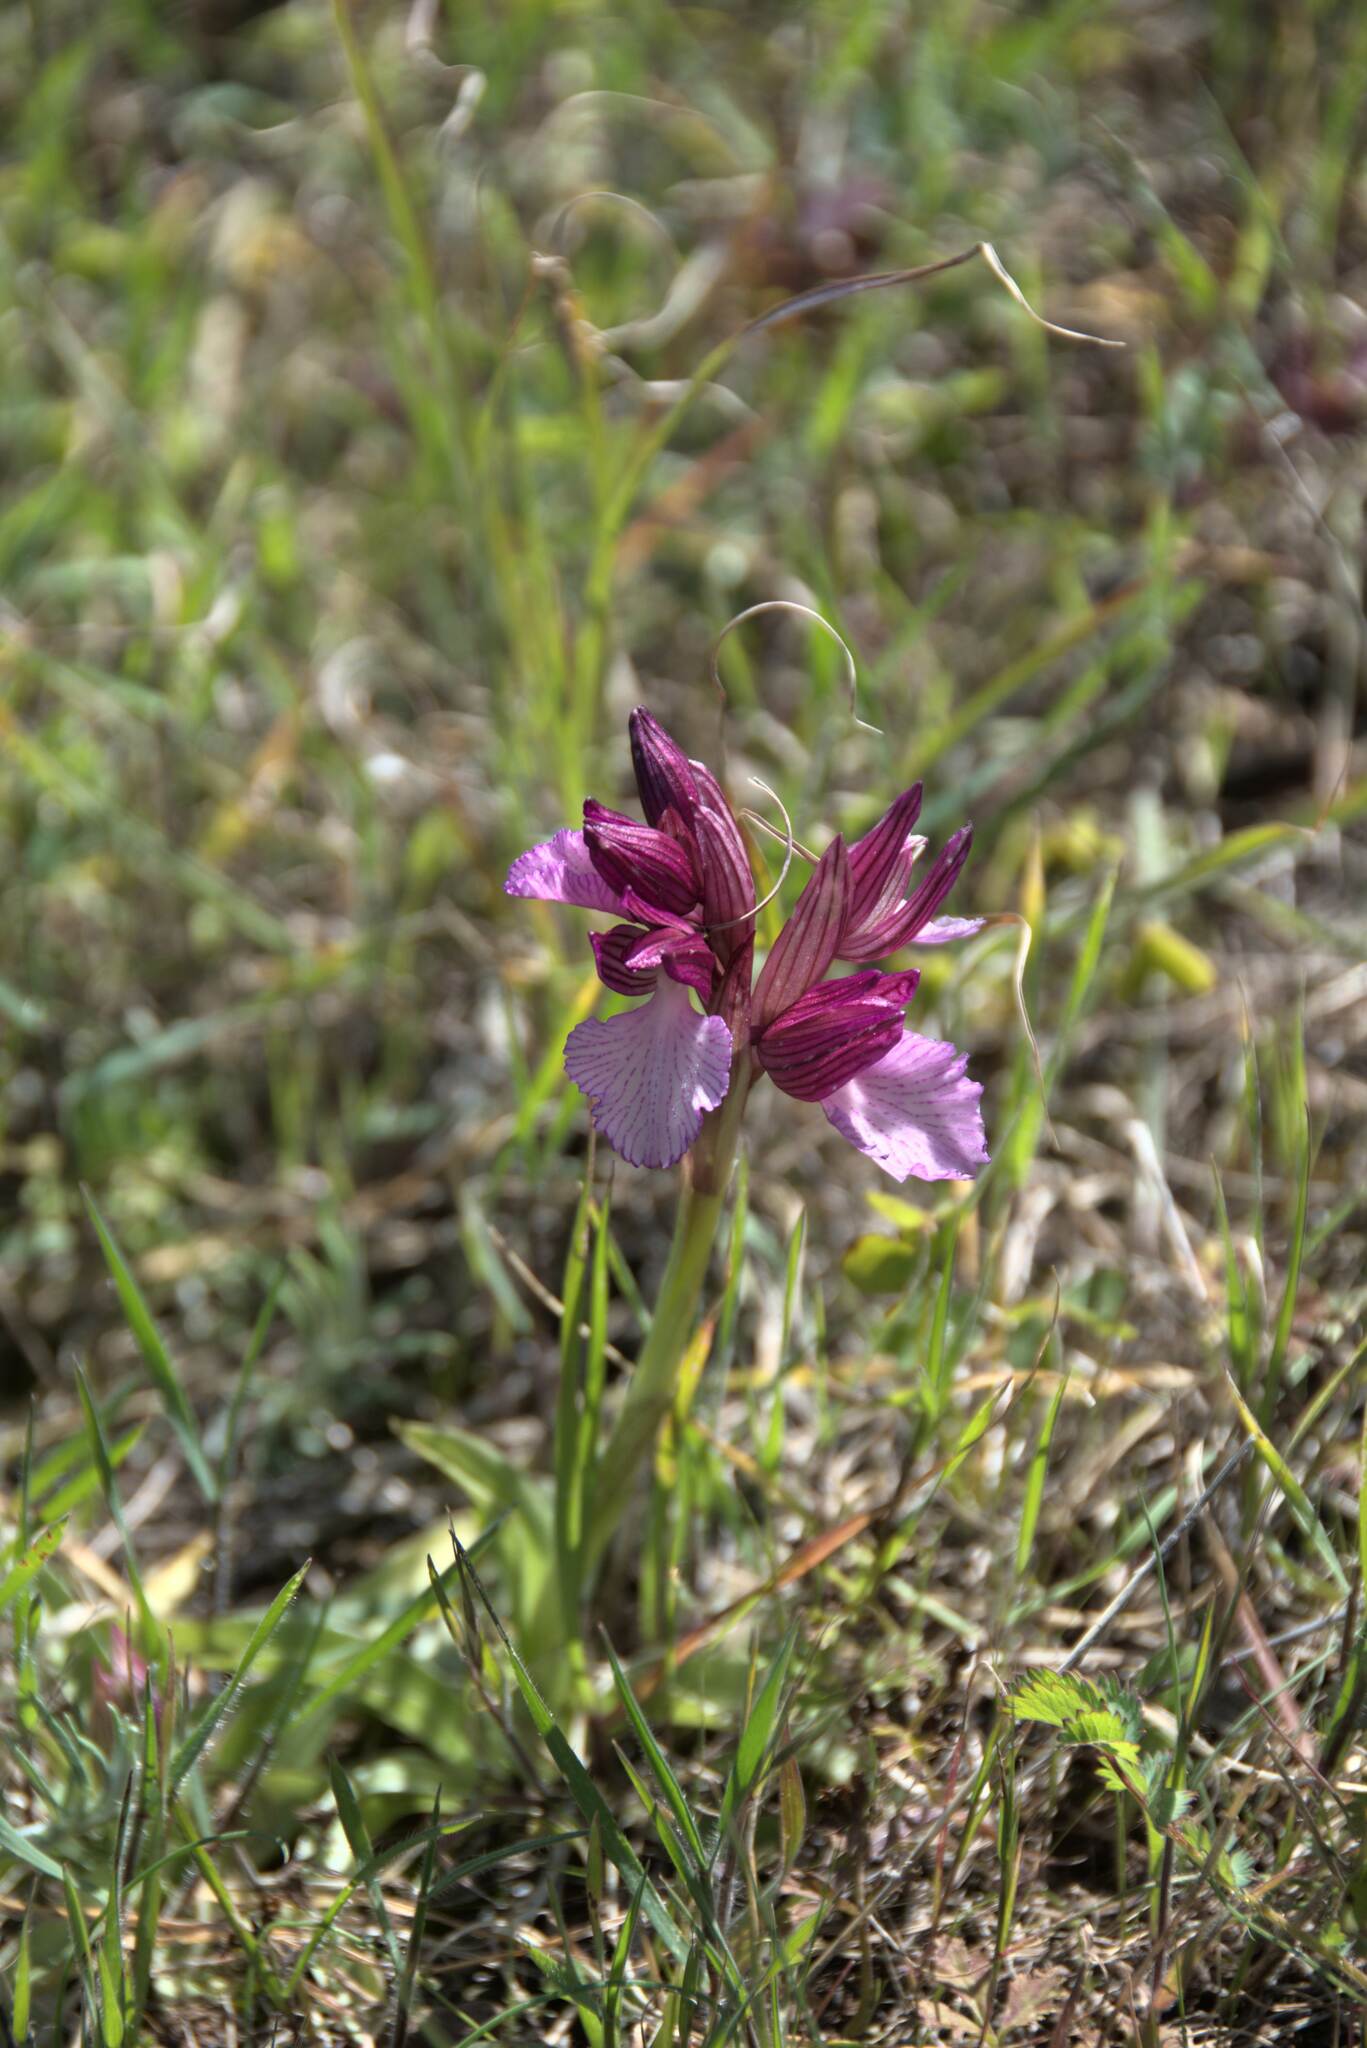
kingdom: Plantae
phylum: Tracheophyta
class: Liliopsida
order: Asparagales
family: Orchidaceae
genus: Anacamptis
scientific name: Anacamptis papilionacea
